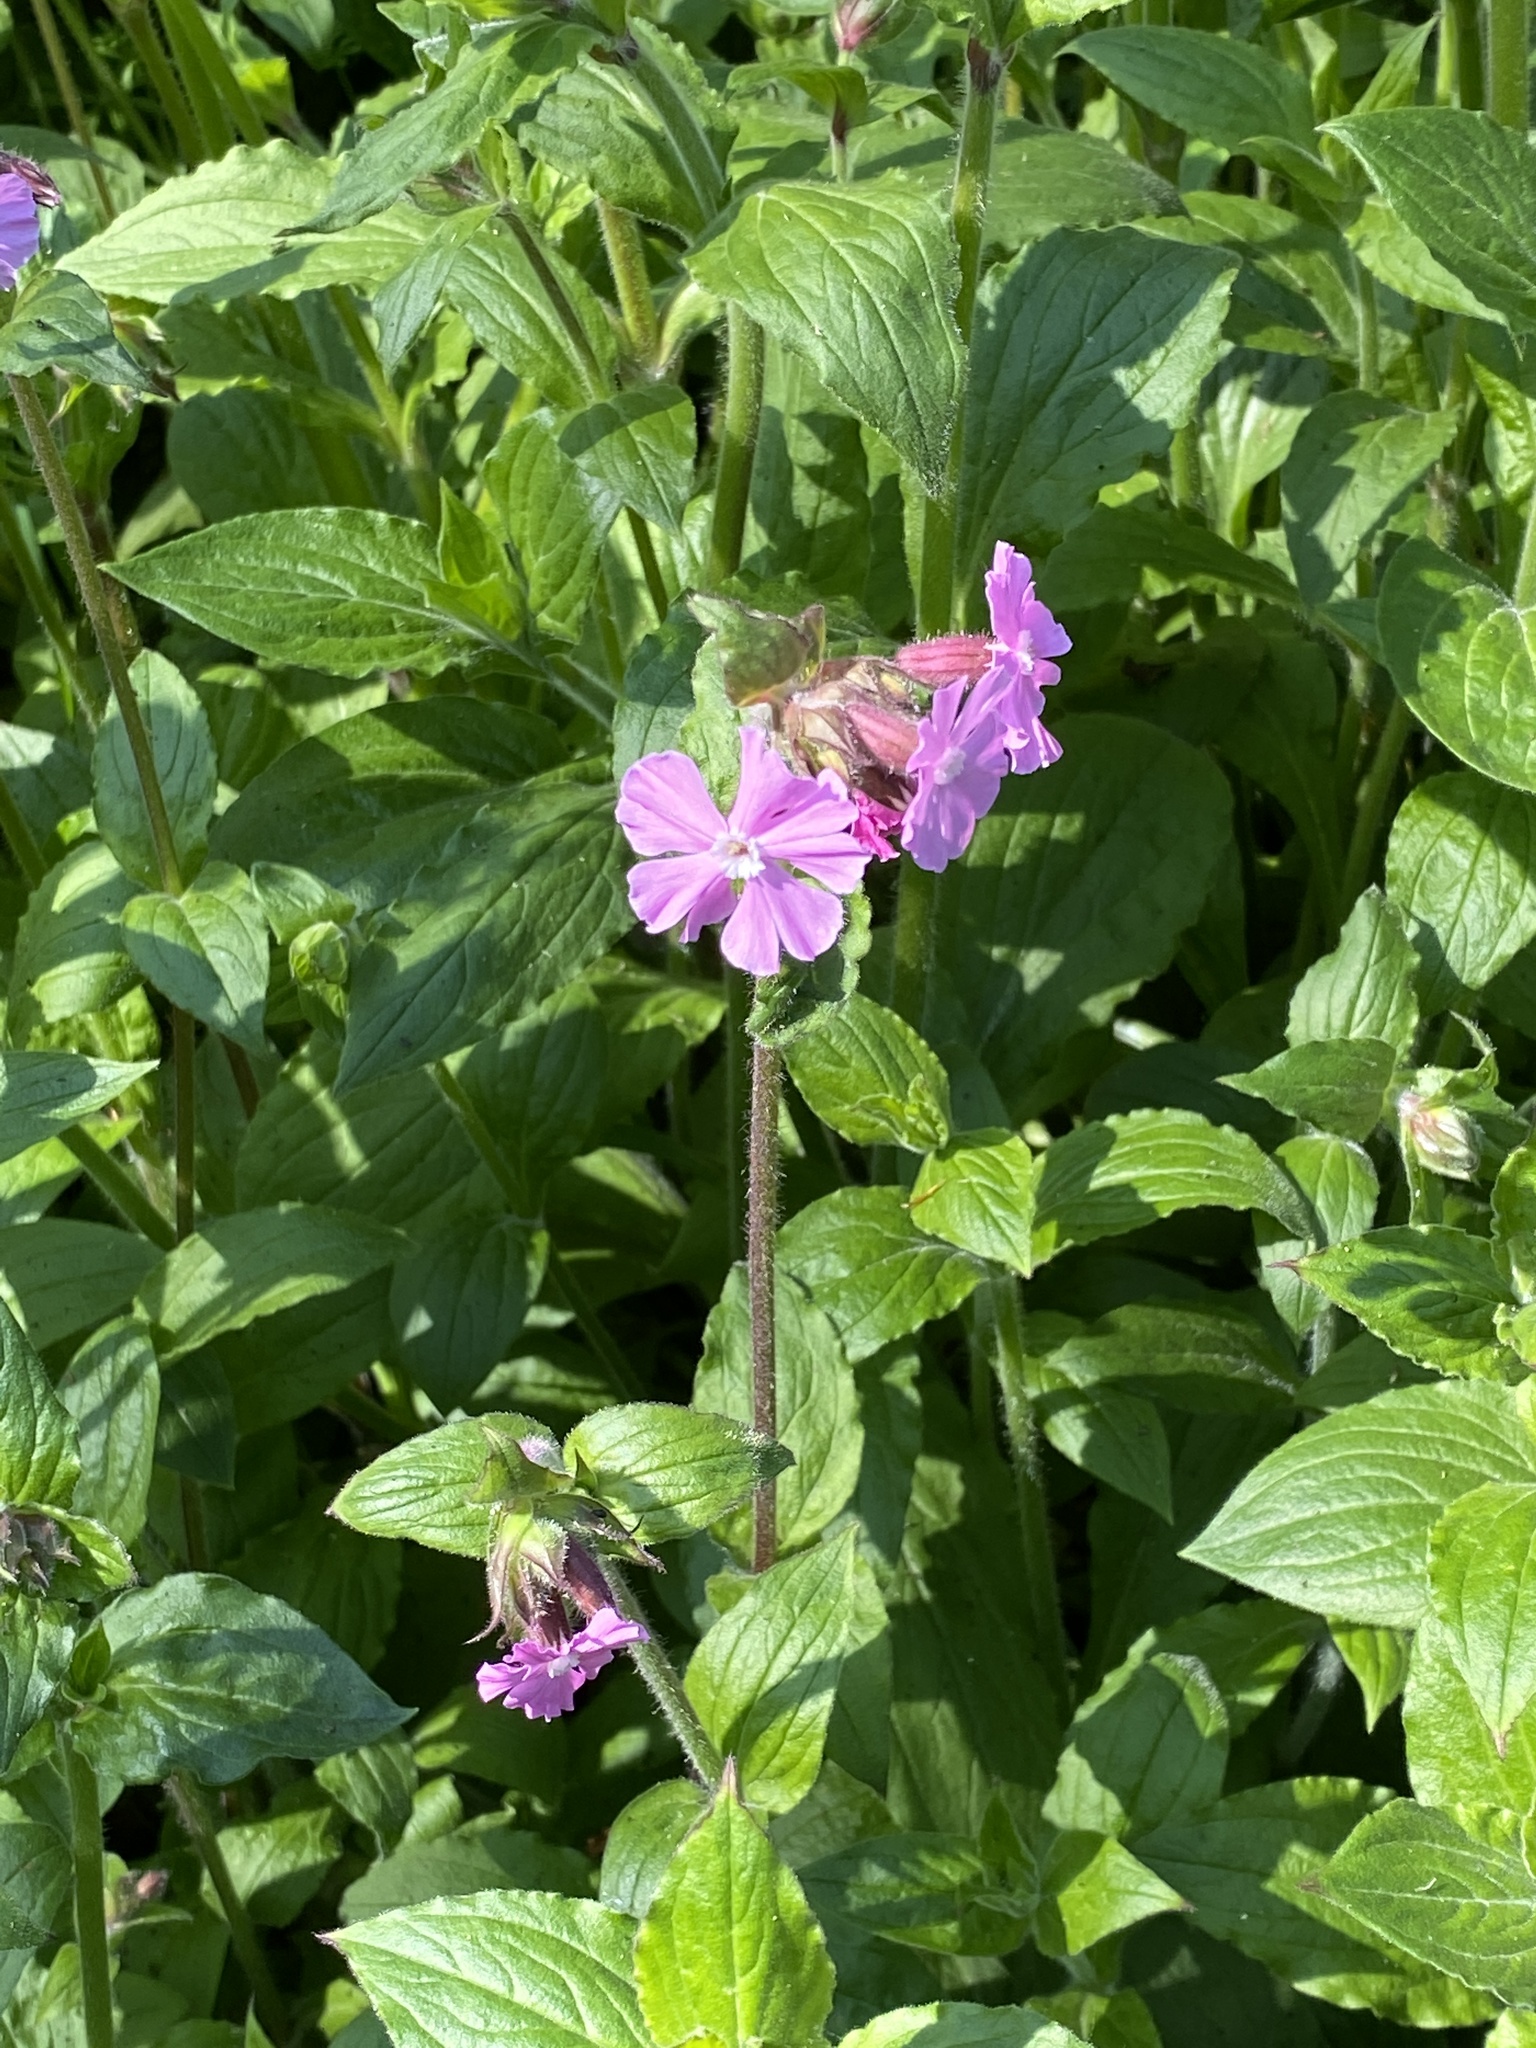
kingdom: Plantae
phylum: Tracheophyta
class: Magnoliopsida
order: Caryophyllales
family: Caryophyllaceae
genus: Silene
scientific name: Silene dioica
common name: Red campion
